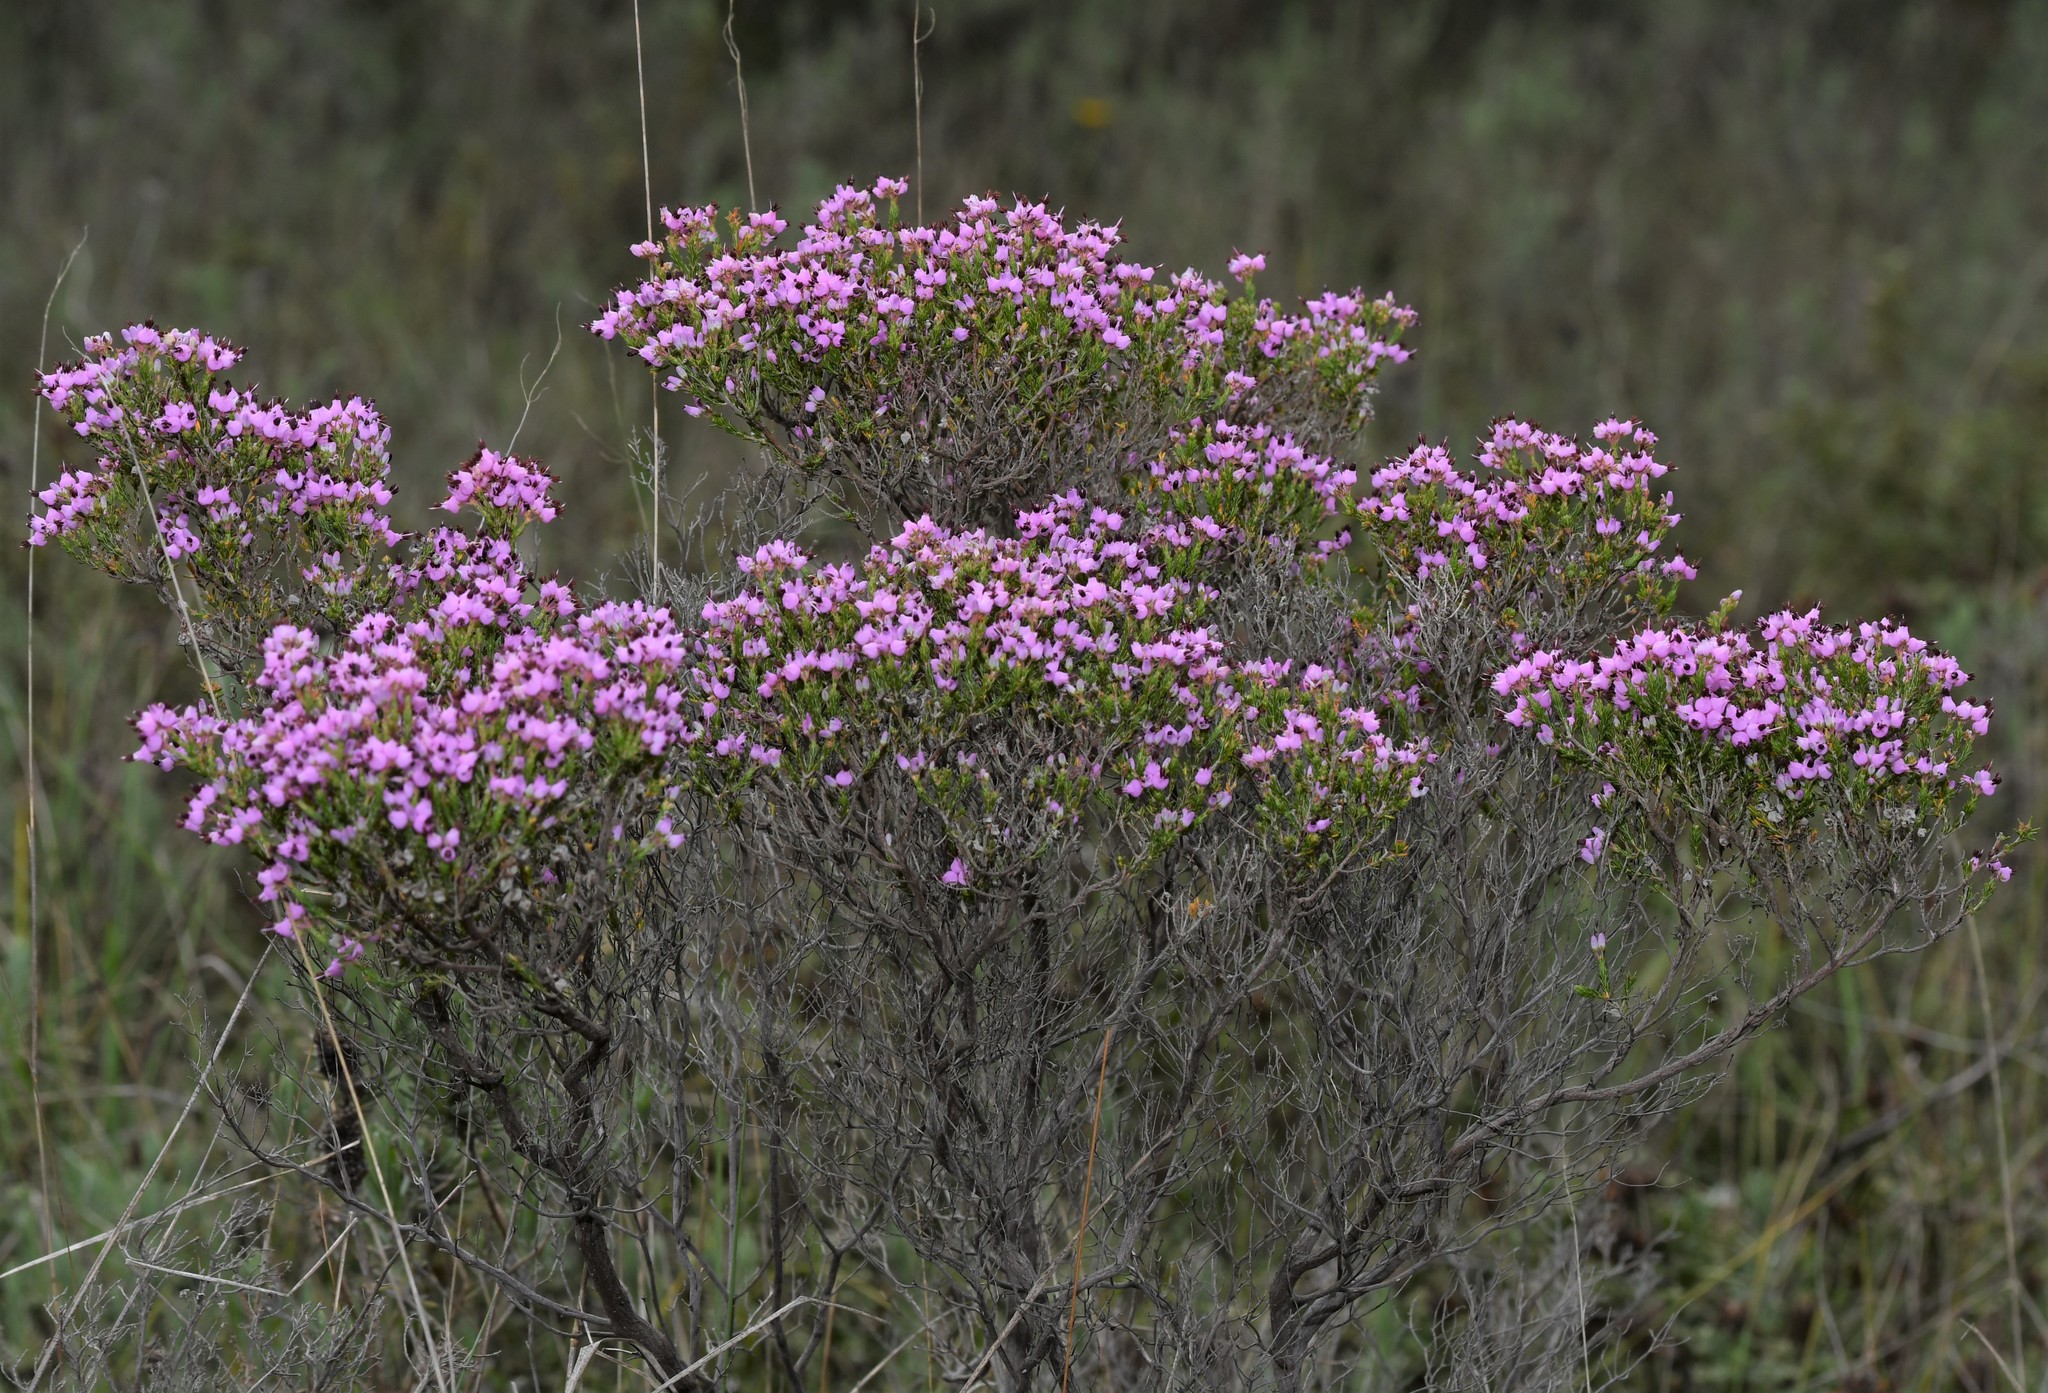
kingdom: Plantae
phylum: Tracheophyta
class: Magnoliopsida
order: Ericales
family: Ericaceae
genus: Erica
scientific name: Erica umbellata
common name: Dwarf spanish heath
